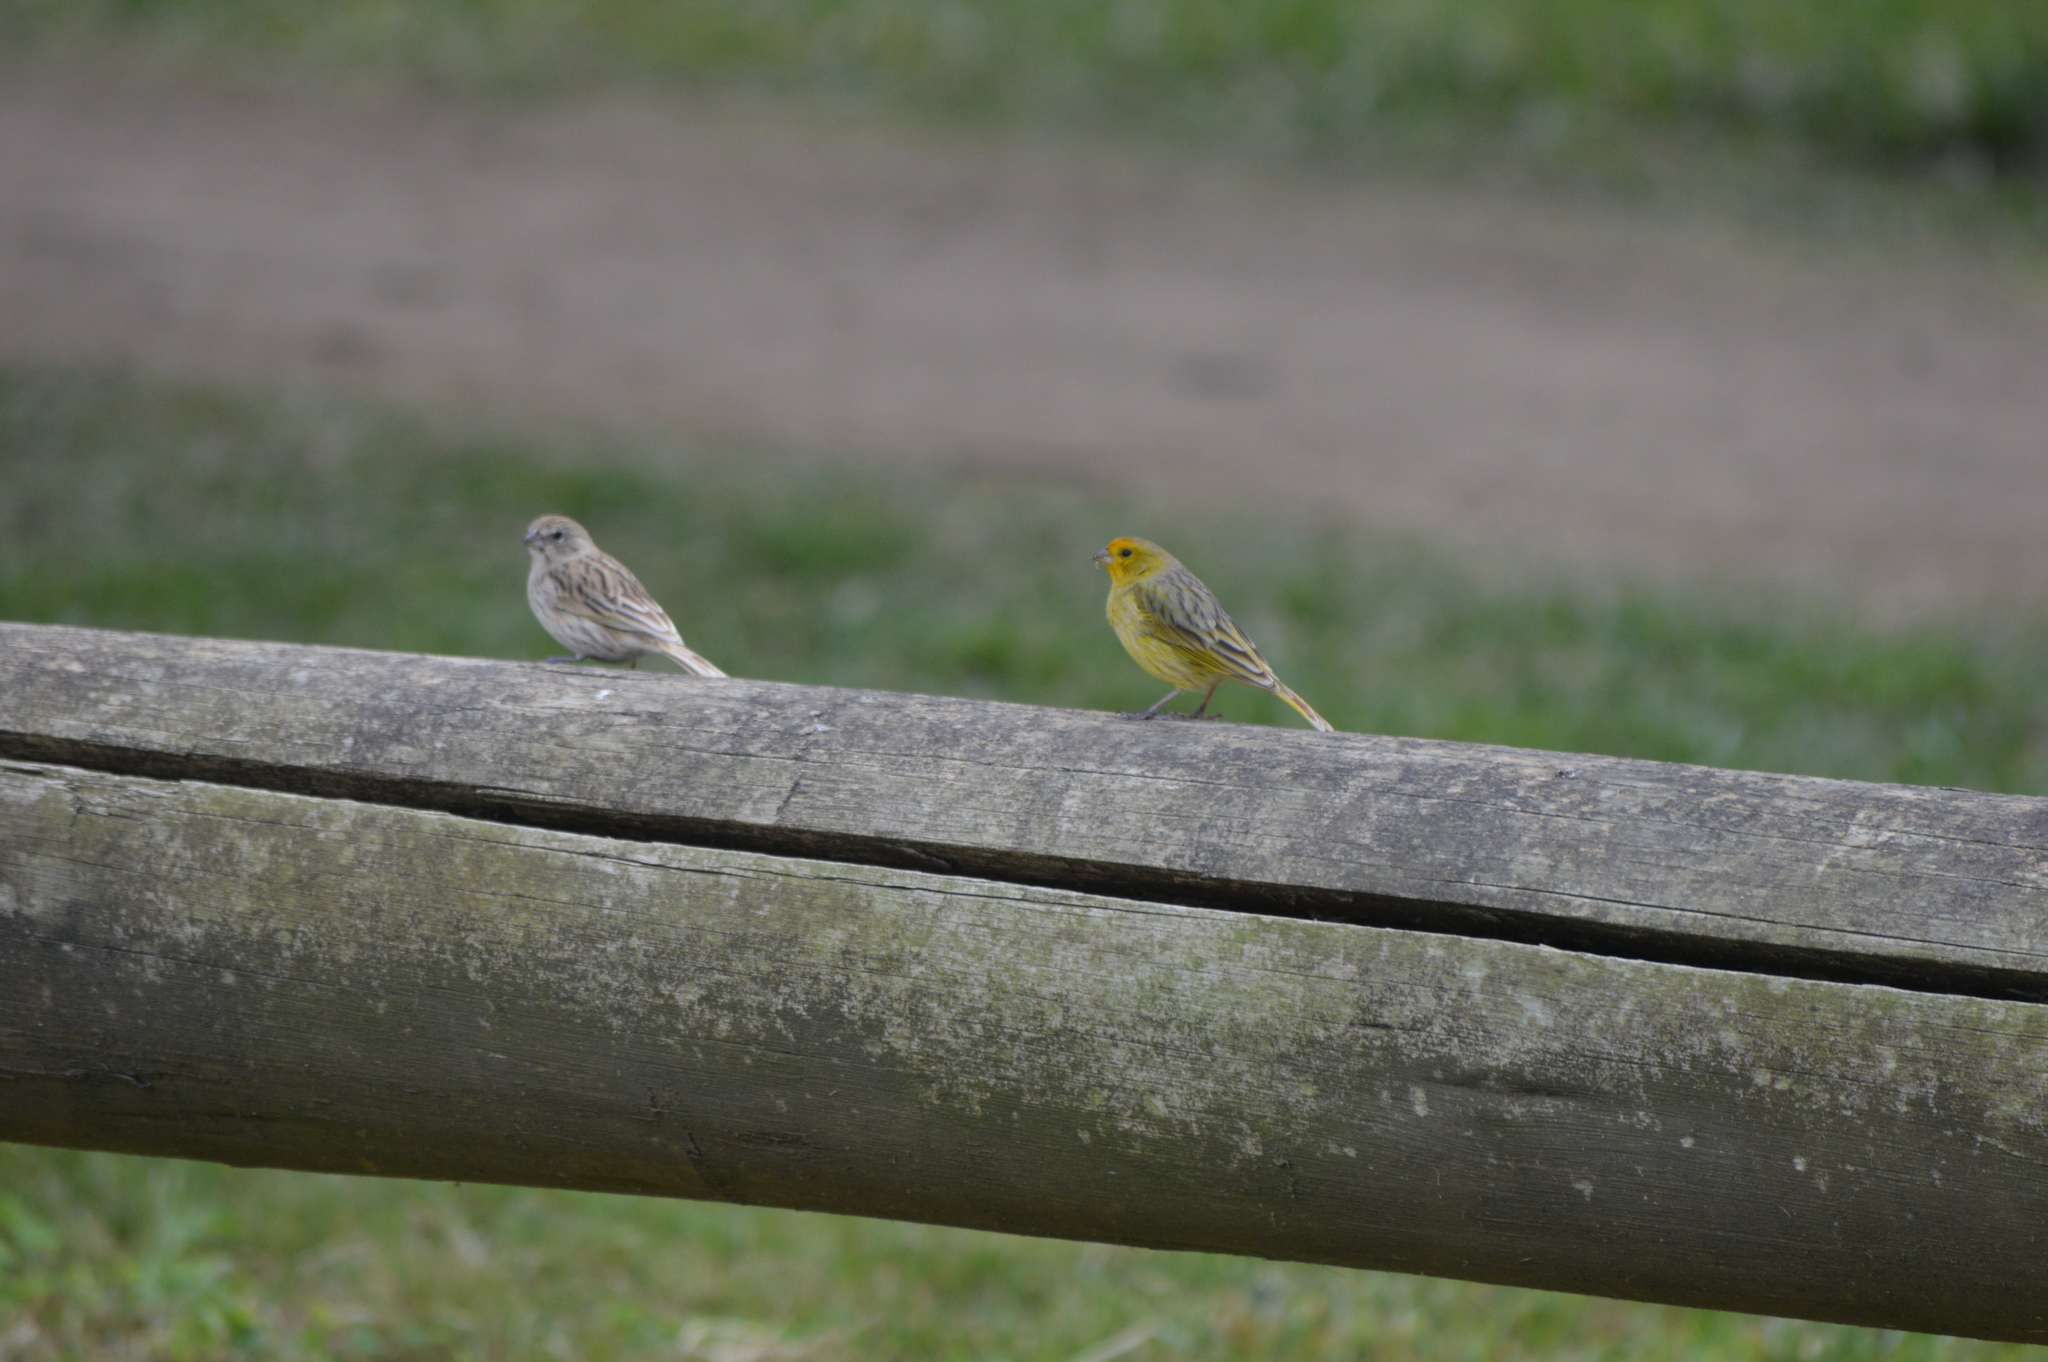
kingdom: Animalia
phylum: Chordata
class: Aves
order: Passeriformes
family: Thraupidae
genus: Sicalis
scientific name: Sicalis flaveola
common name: Saffron finch
